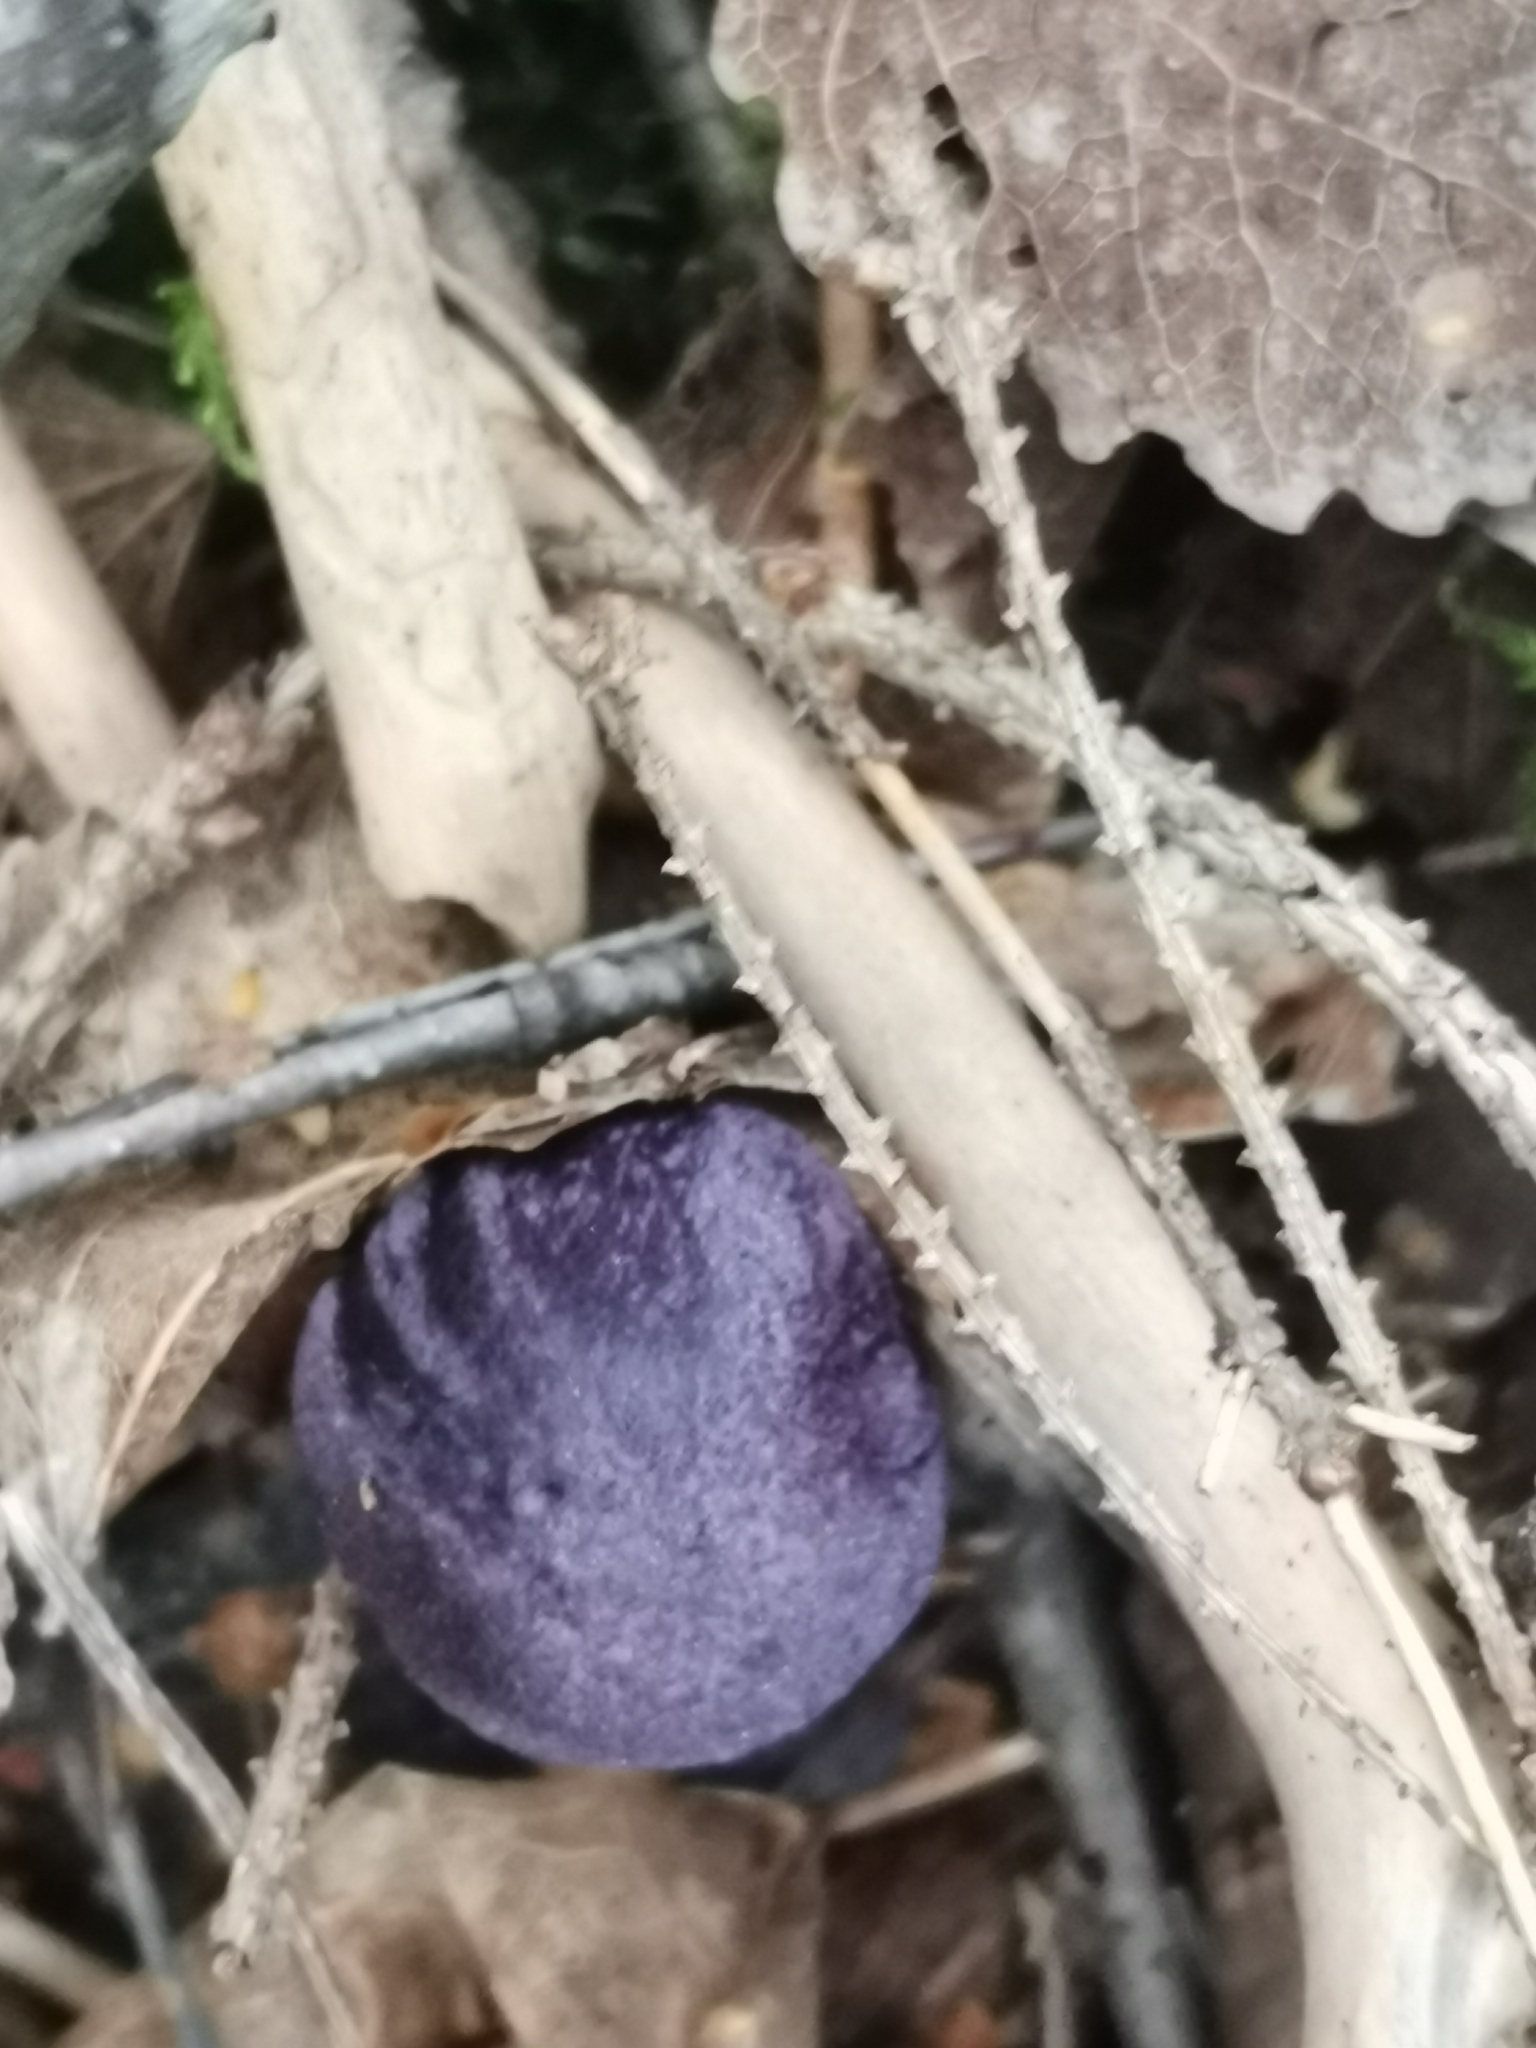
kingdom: Fungi
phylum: Basidiomycota
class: Agaricomycetes
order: Agaricales
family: Cortinariaceae
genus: Cortinarius
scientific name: Cortinarius violaceus
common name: Violet webcap
